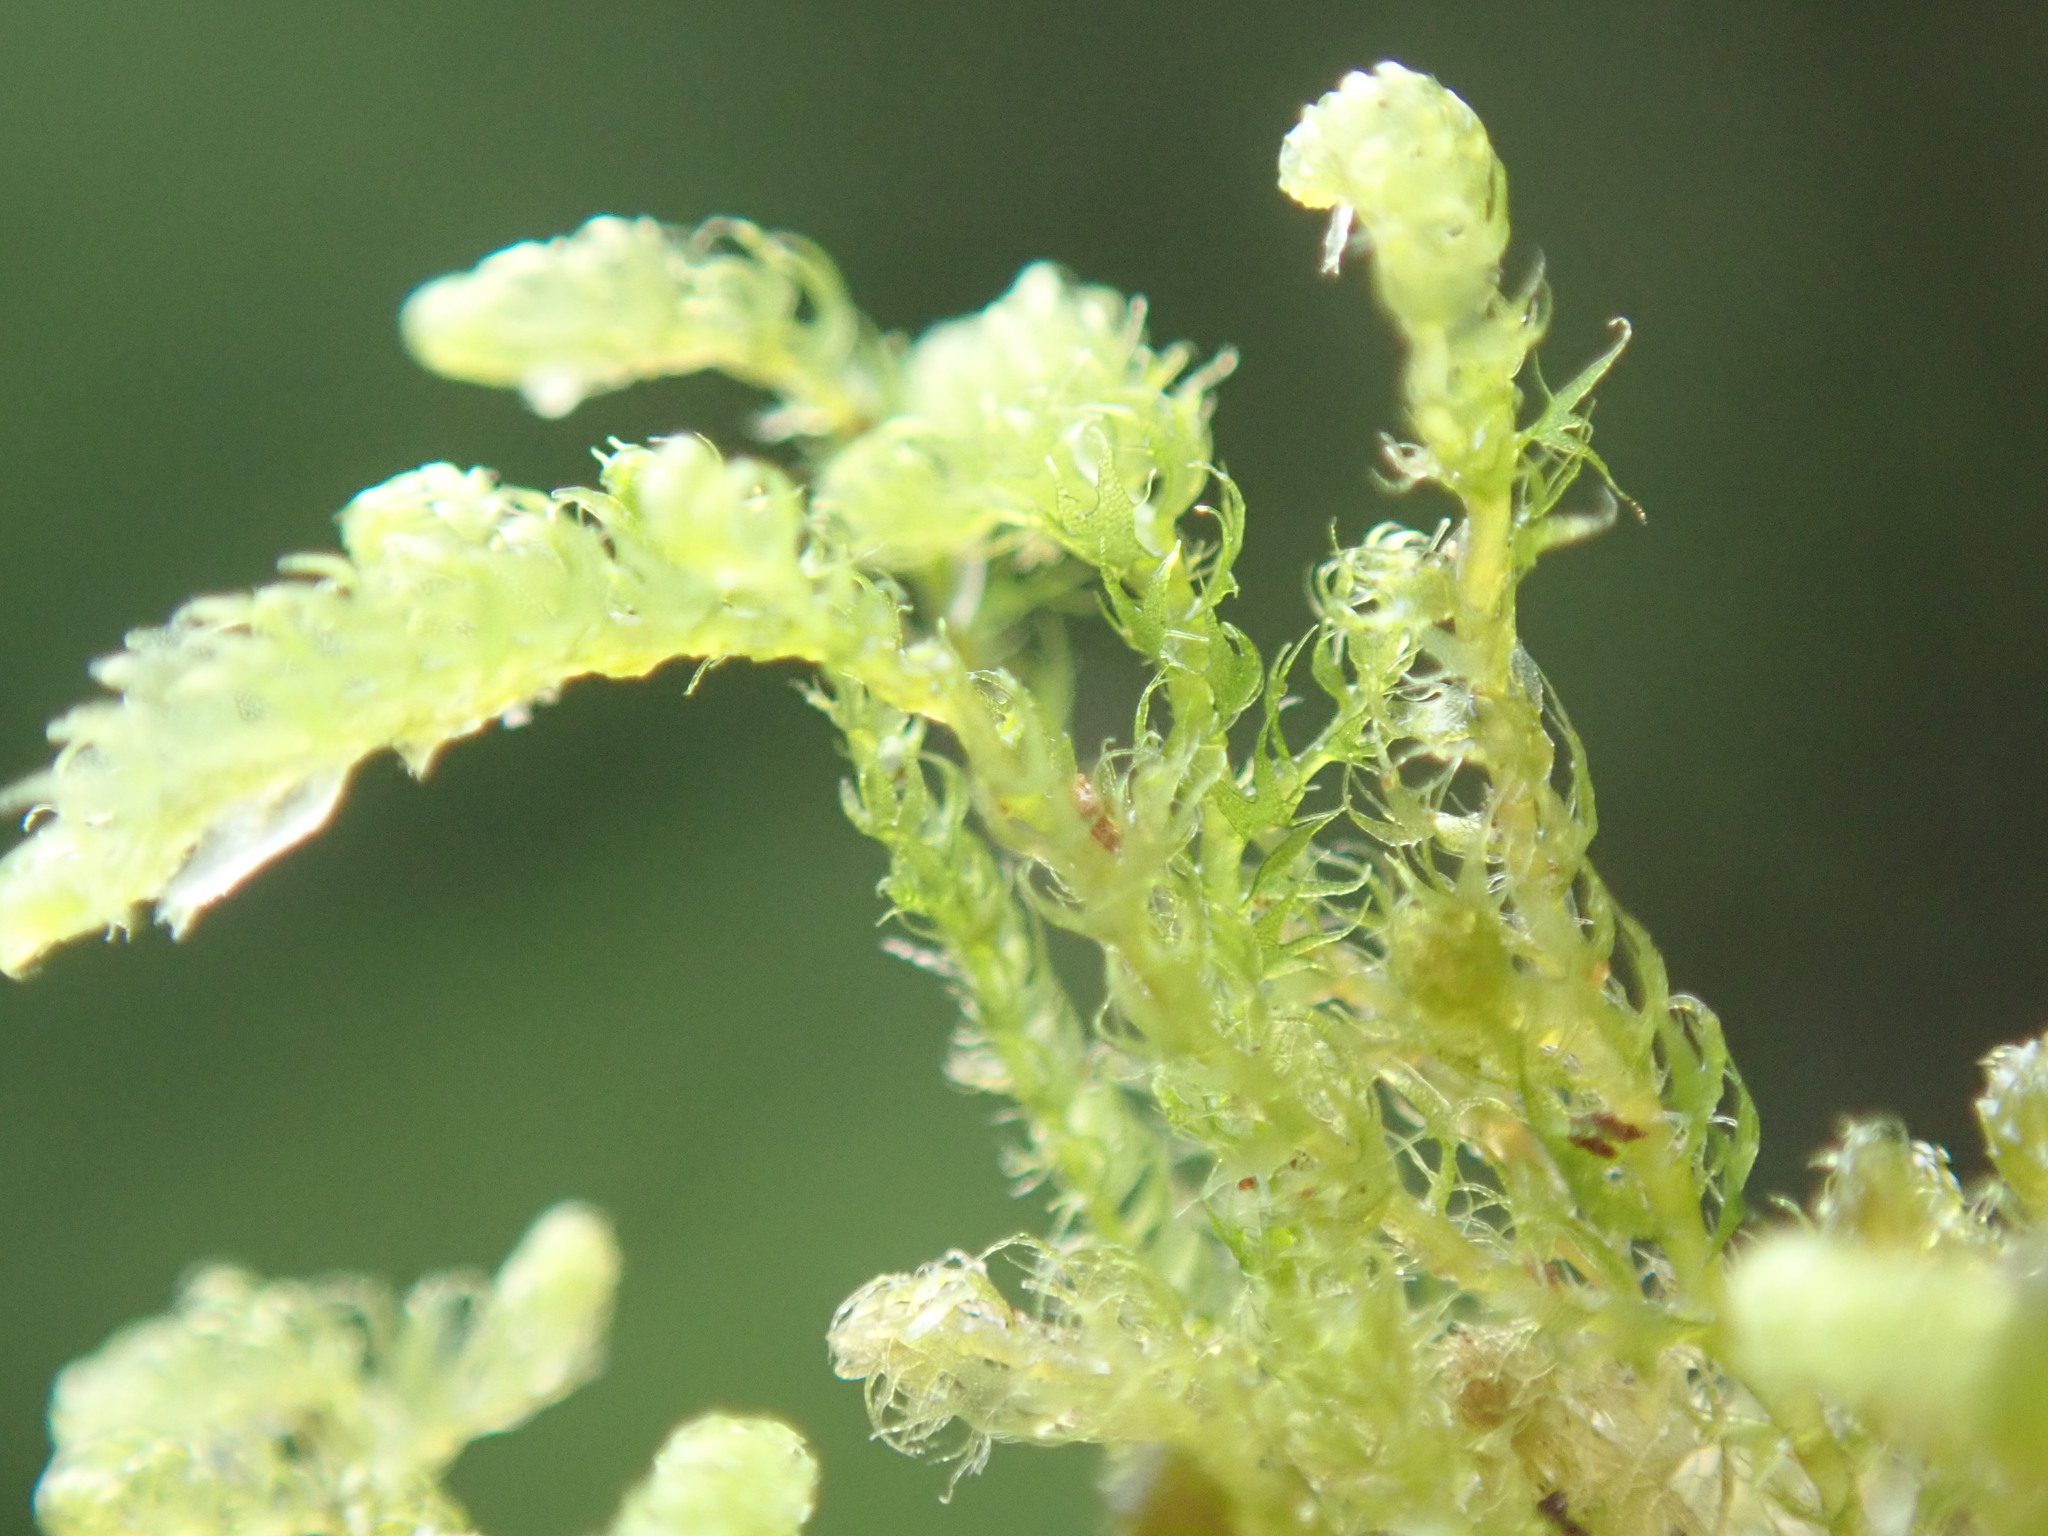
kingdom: Plantae
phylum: Marchantiophyta
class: Jungermanniopsida
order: Ptilidiales
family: Ptilidiaceae
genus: Ptilidium
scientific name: Ptilidium californicum
